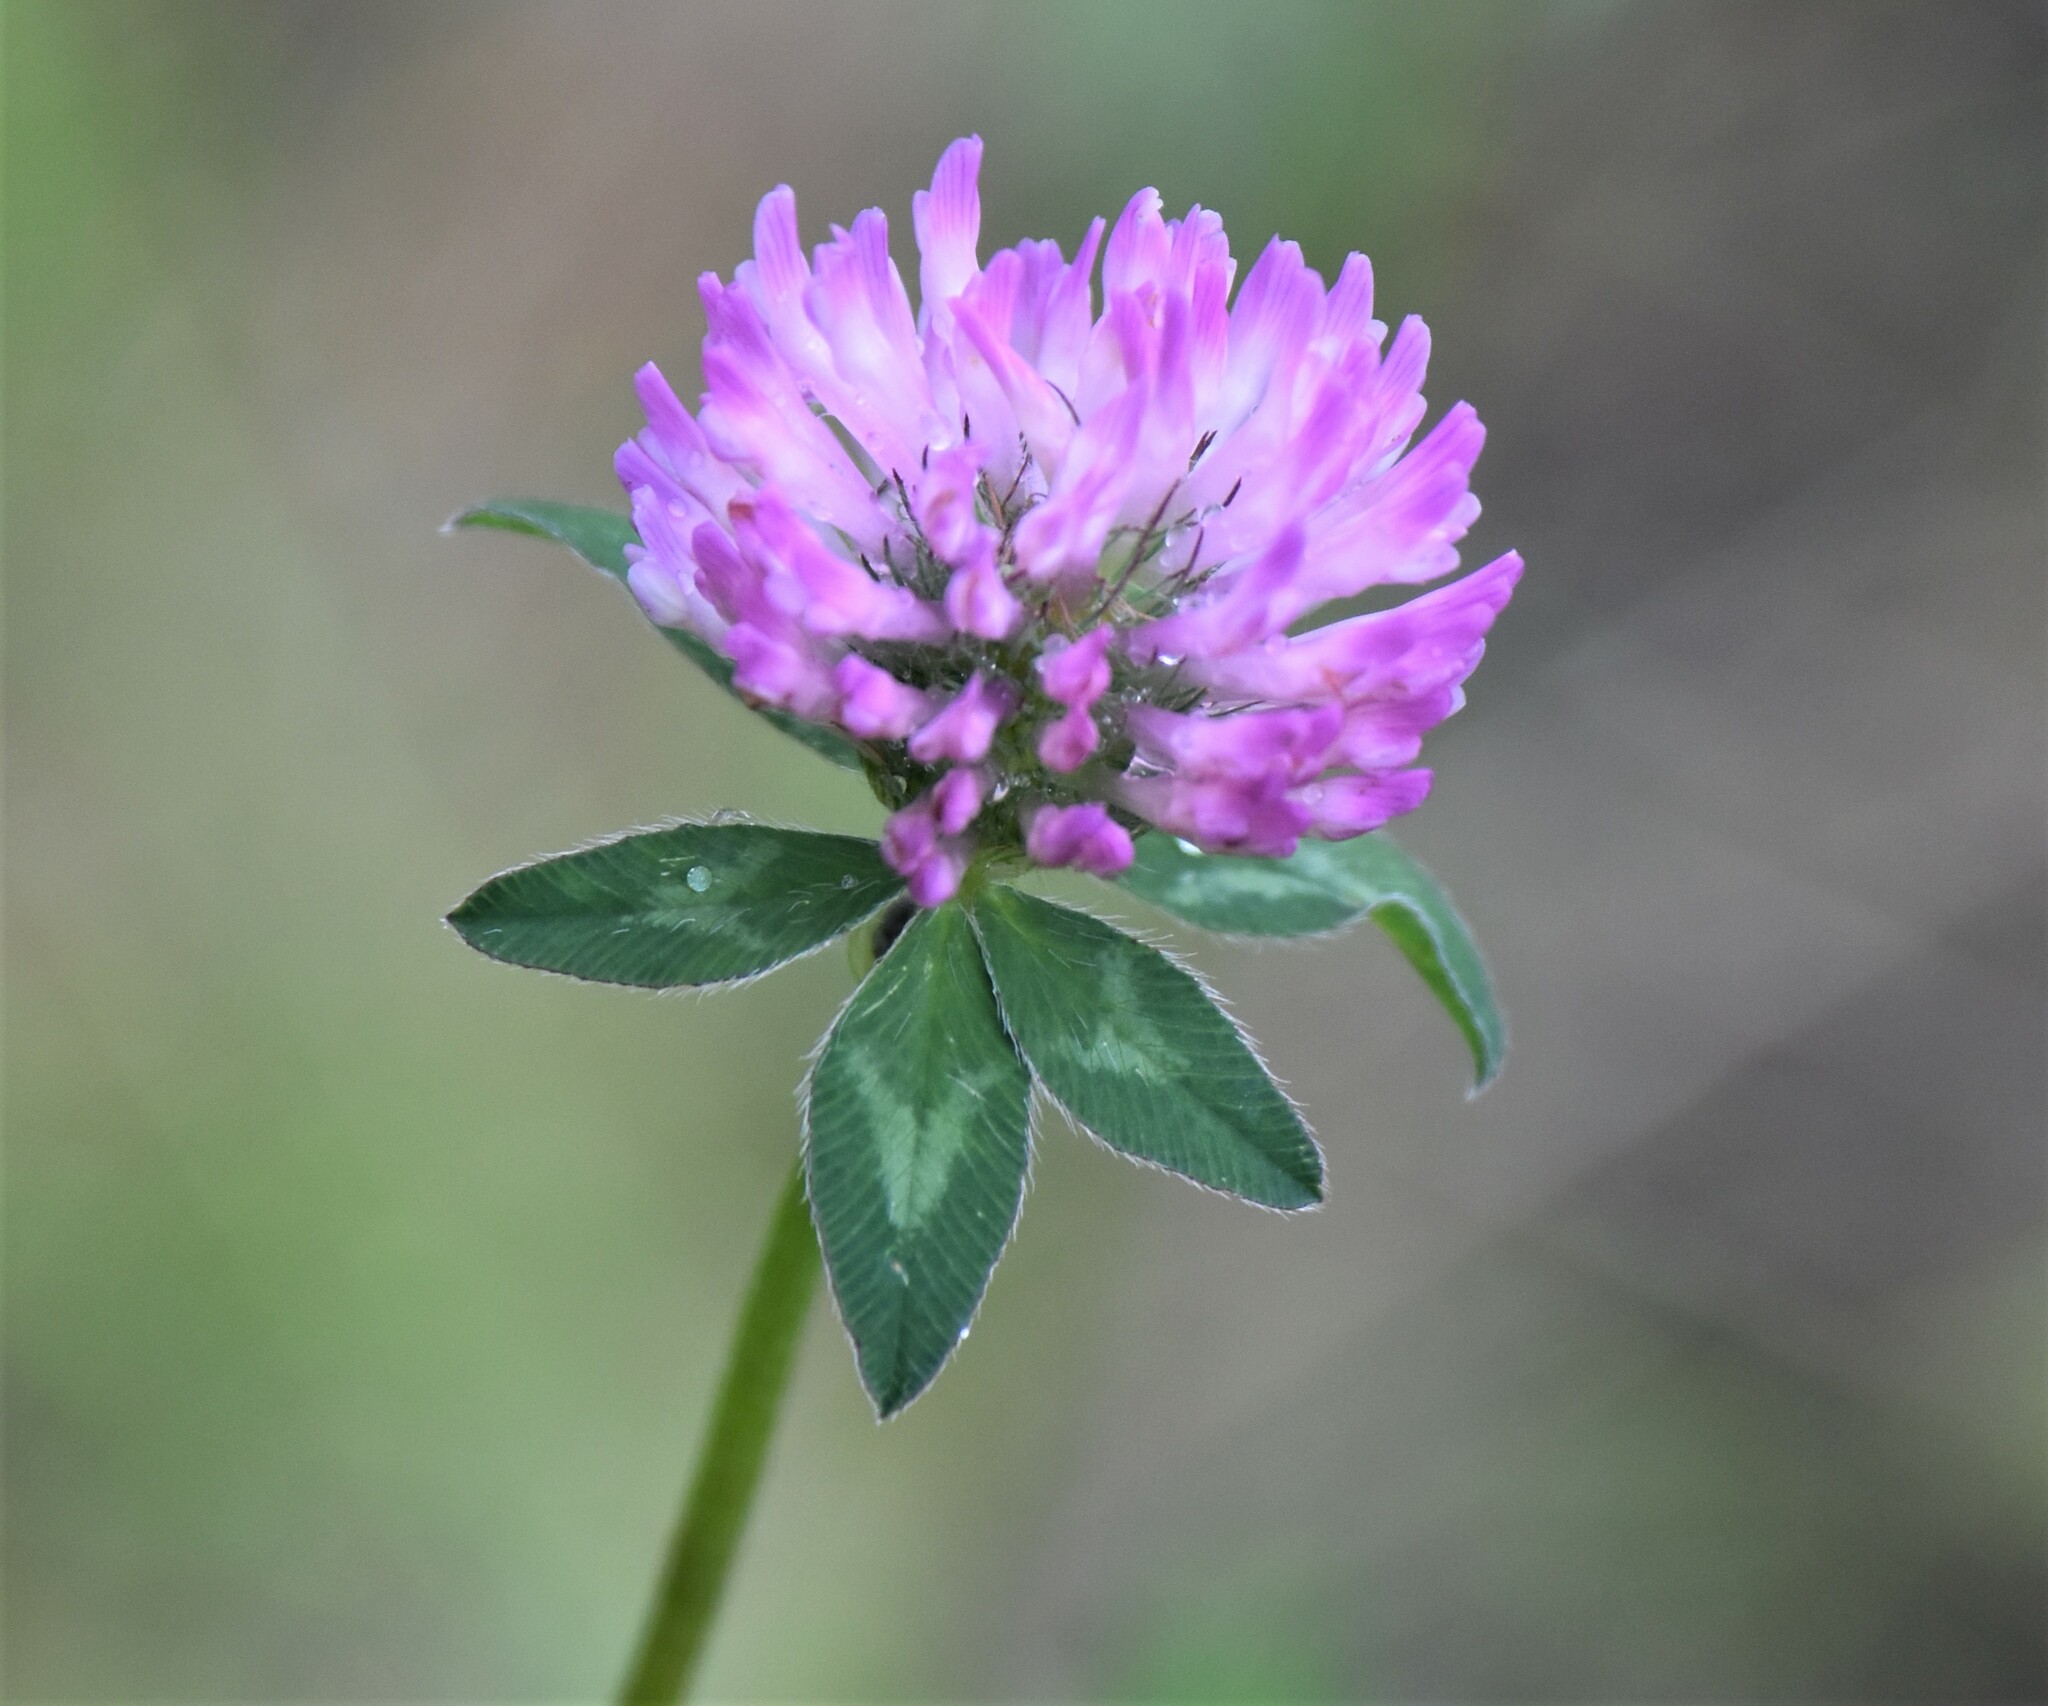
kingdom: Plantae
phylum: Tracheophyta
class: Magnoliopsida
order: Fabales
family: Fabaceae
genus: Trifolium
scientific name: Trifolium pratense
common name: Red clover
